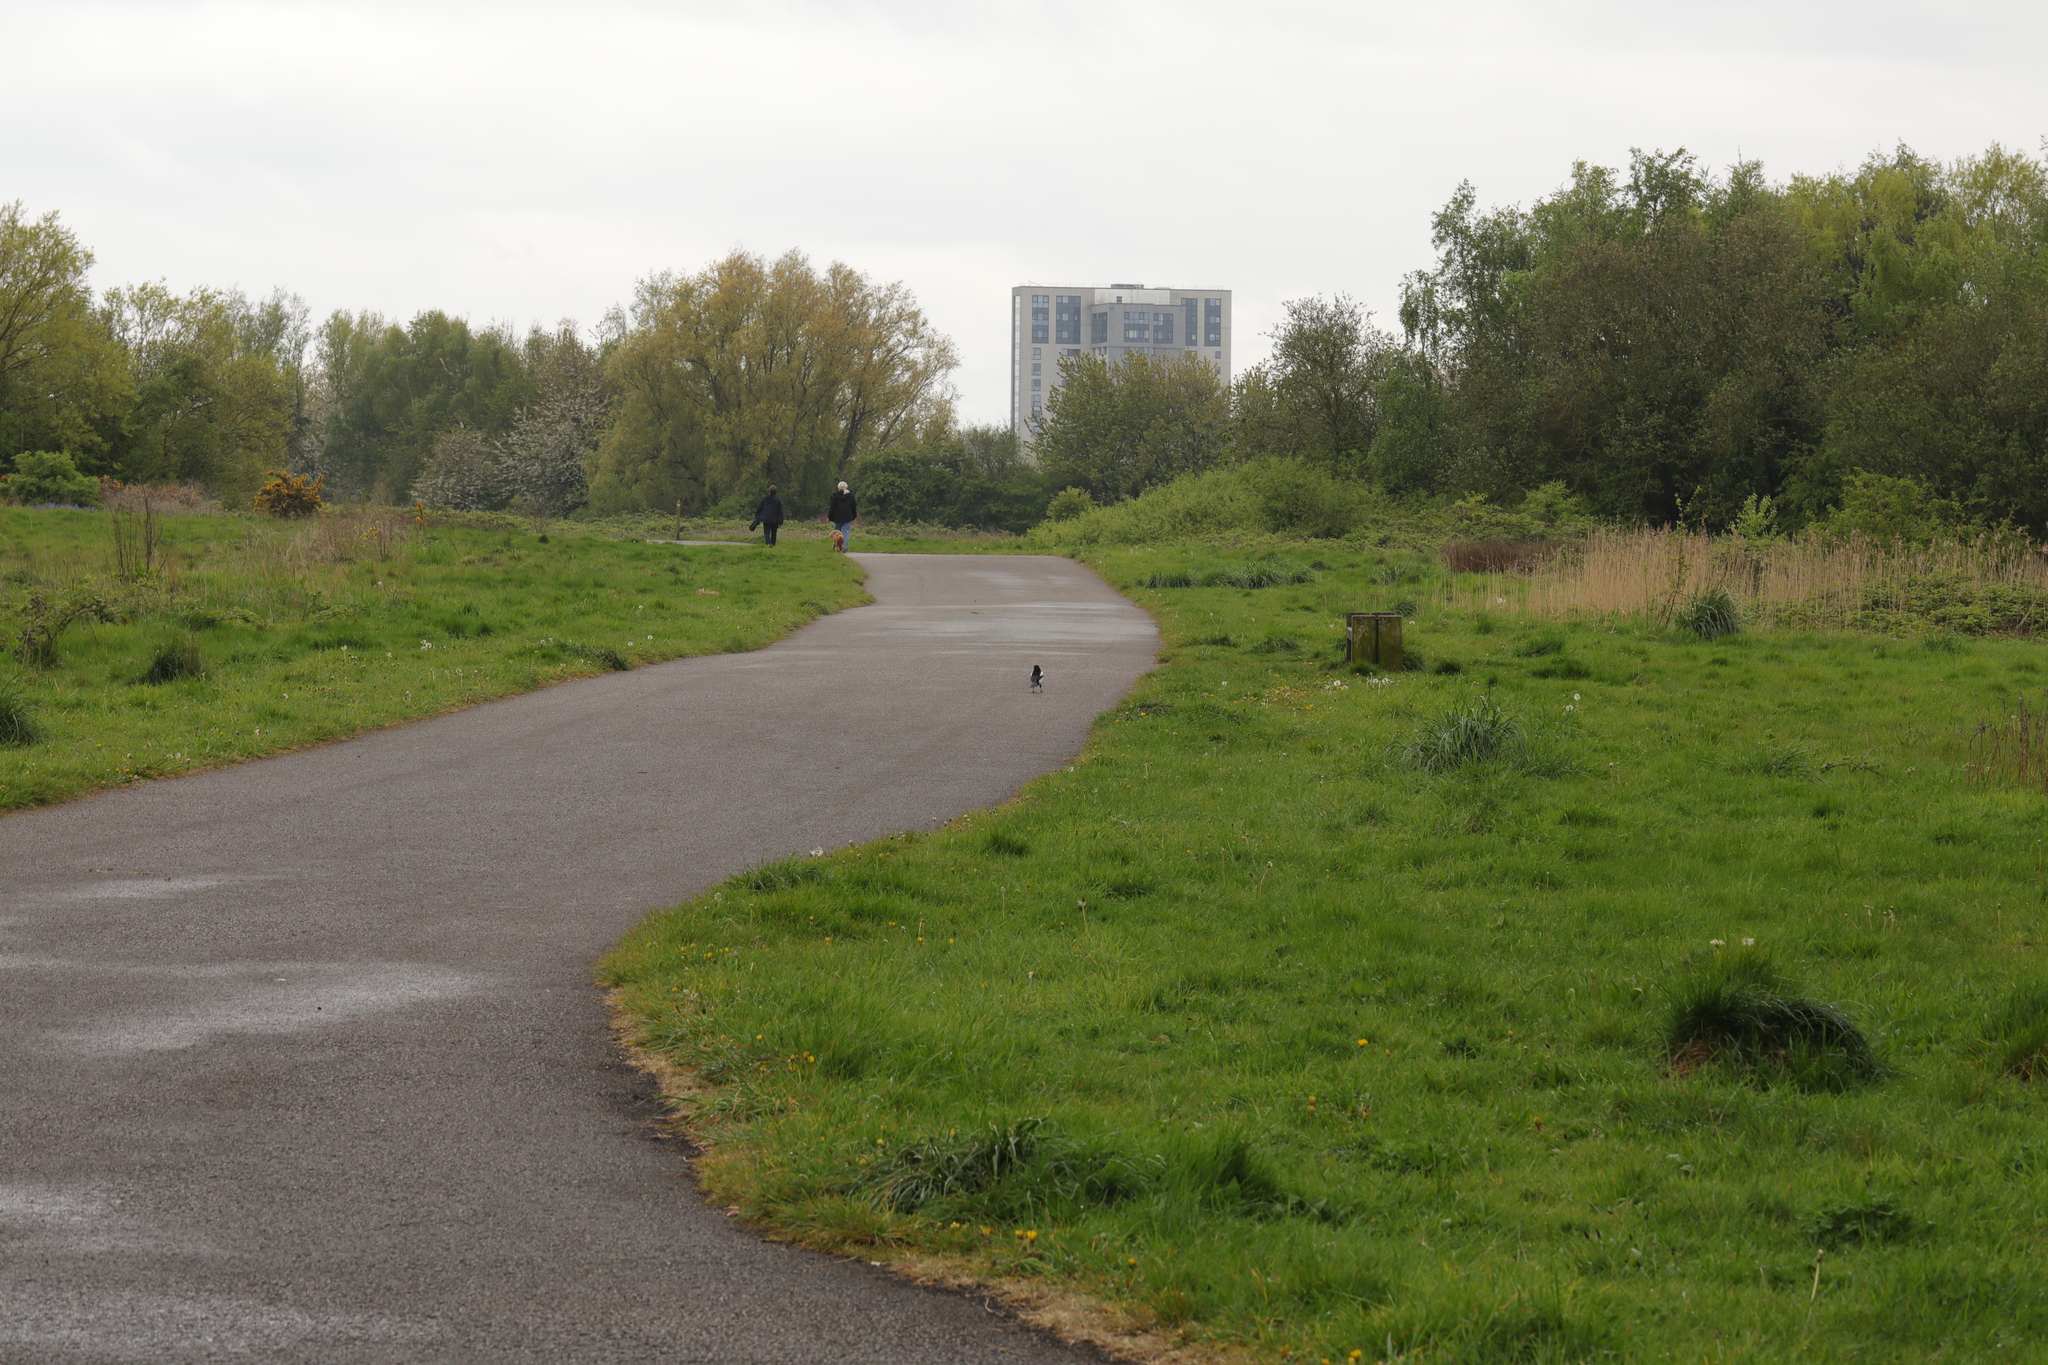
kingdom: Animalia
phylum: Chordata
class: Aves
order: Passeriformes
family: Corvidae
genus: Pica
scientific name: Pica pica
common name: Eurasian magpie
